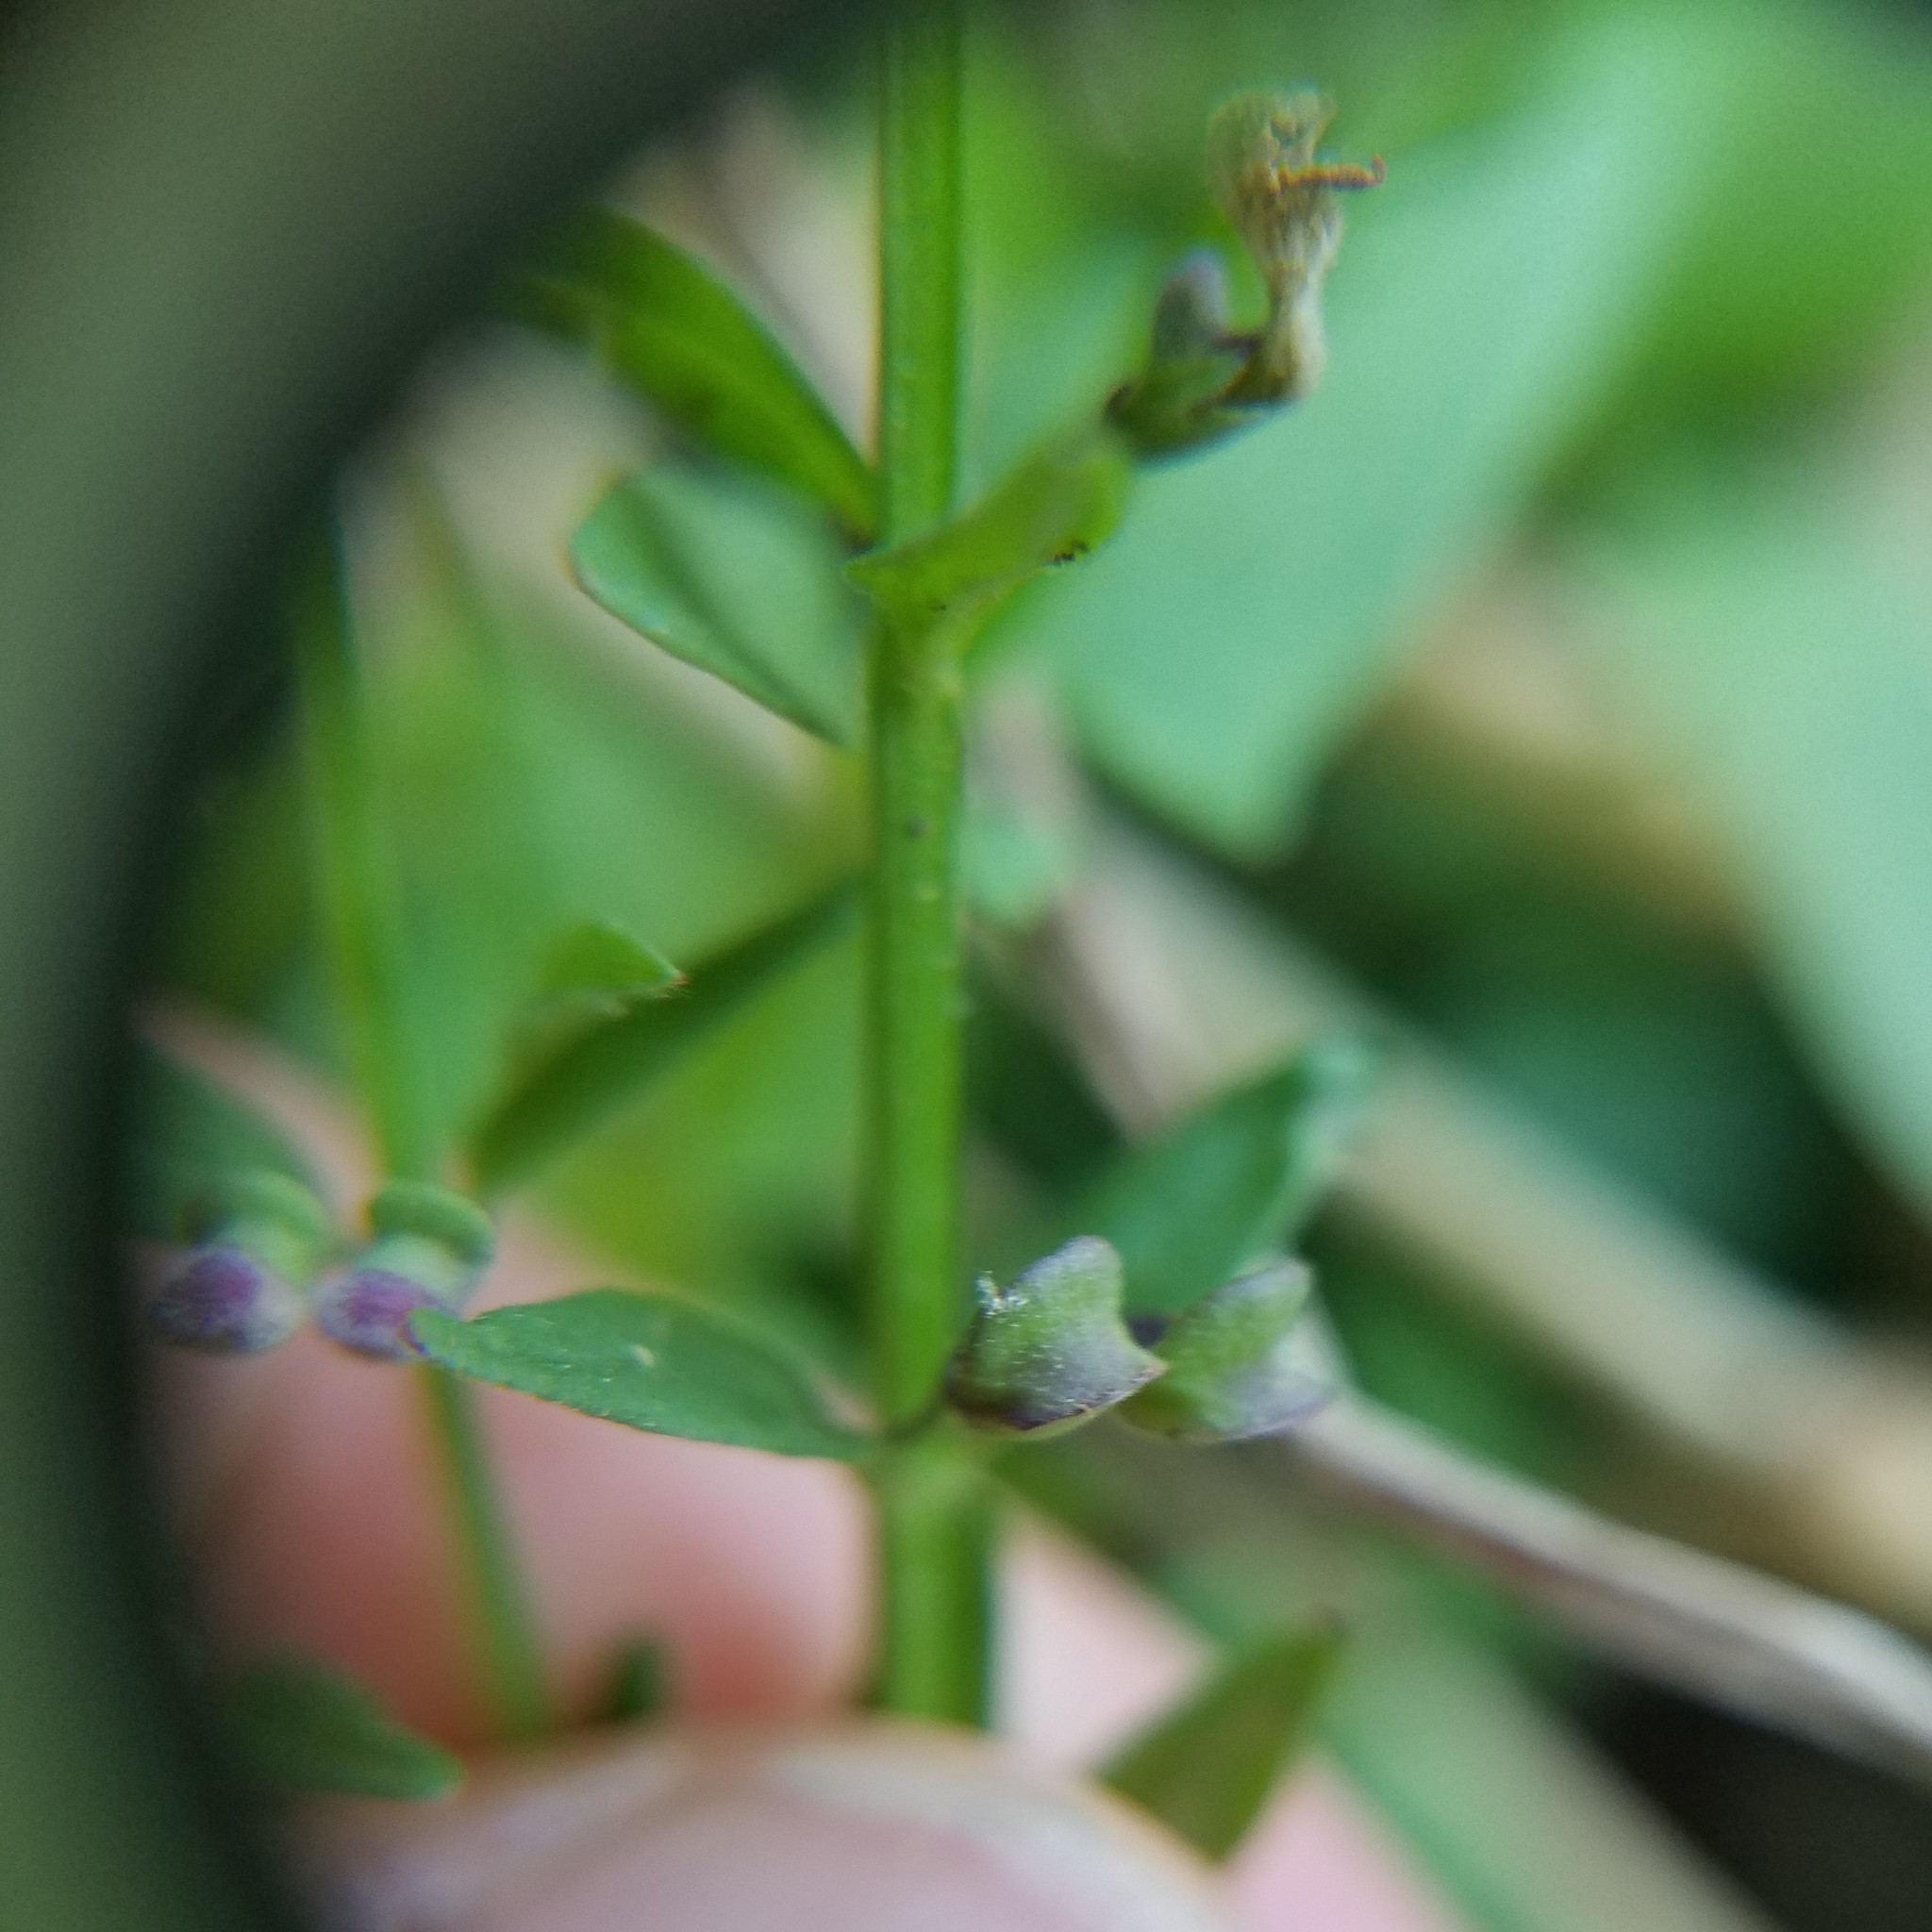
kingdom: Plantae
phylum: Tracheophyta
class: Magnoliopsida
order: Lamiales
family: Lamiaceae
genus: Scutellaria
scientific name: Scutellaria racemosa
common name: South american skullcap
